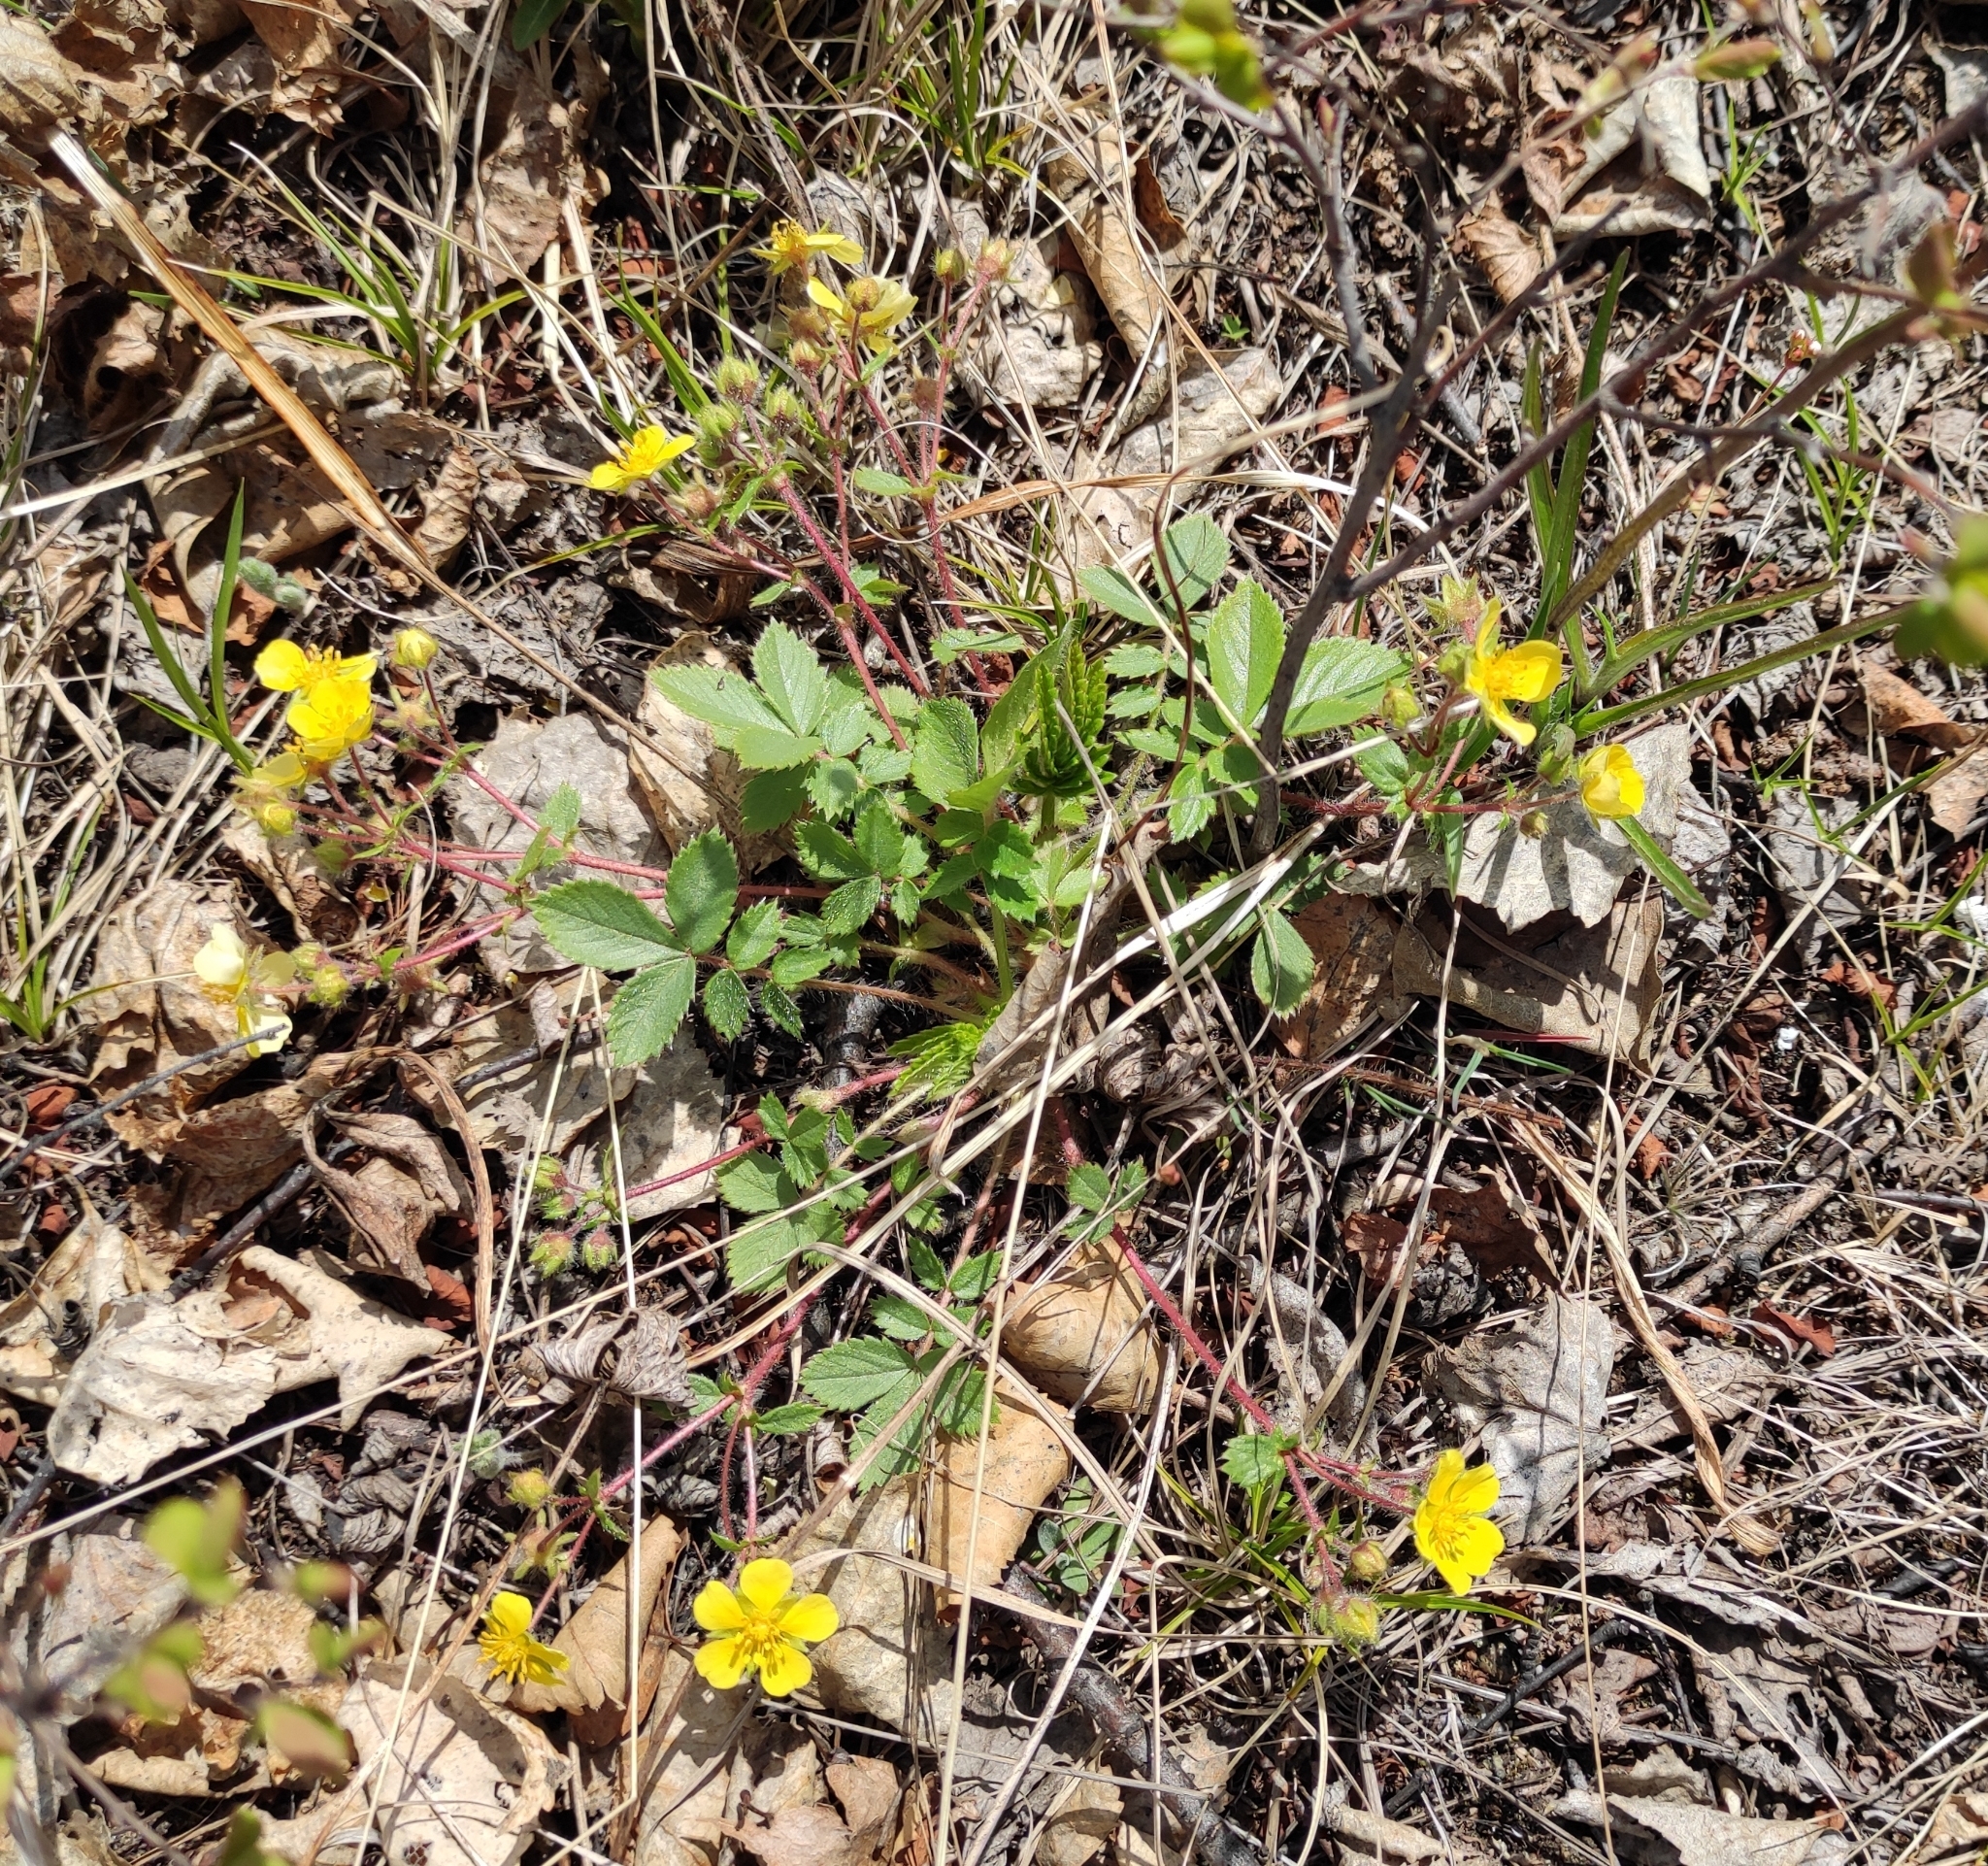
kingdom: Plantae
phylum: Tracheophyta
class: Magnoliopsida
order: Rosales
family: Rosaceae
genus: Potentilla
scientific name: Potentilla fragarioides
